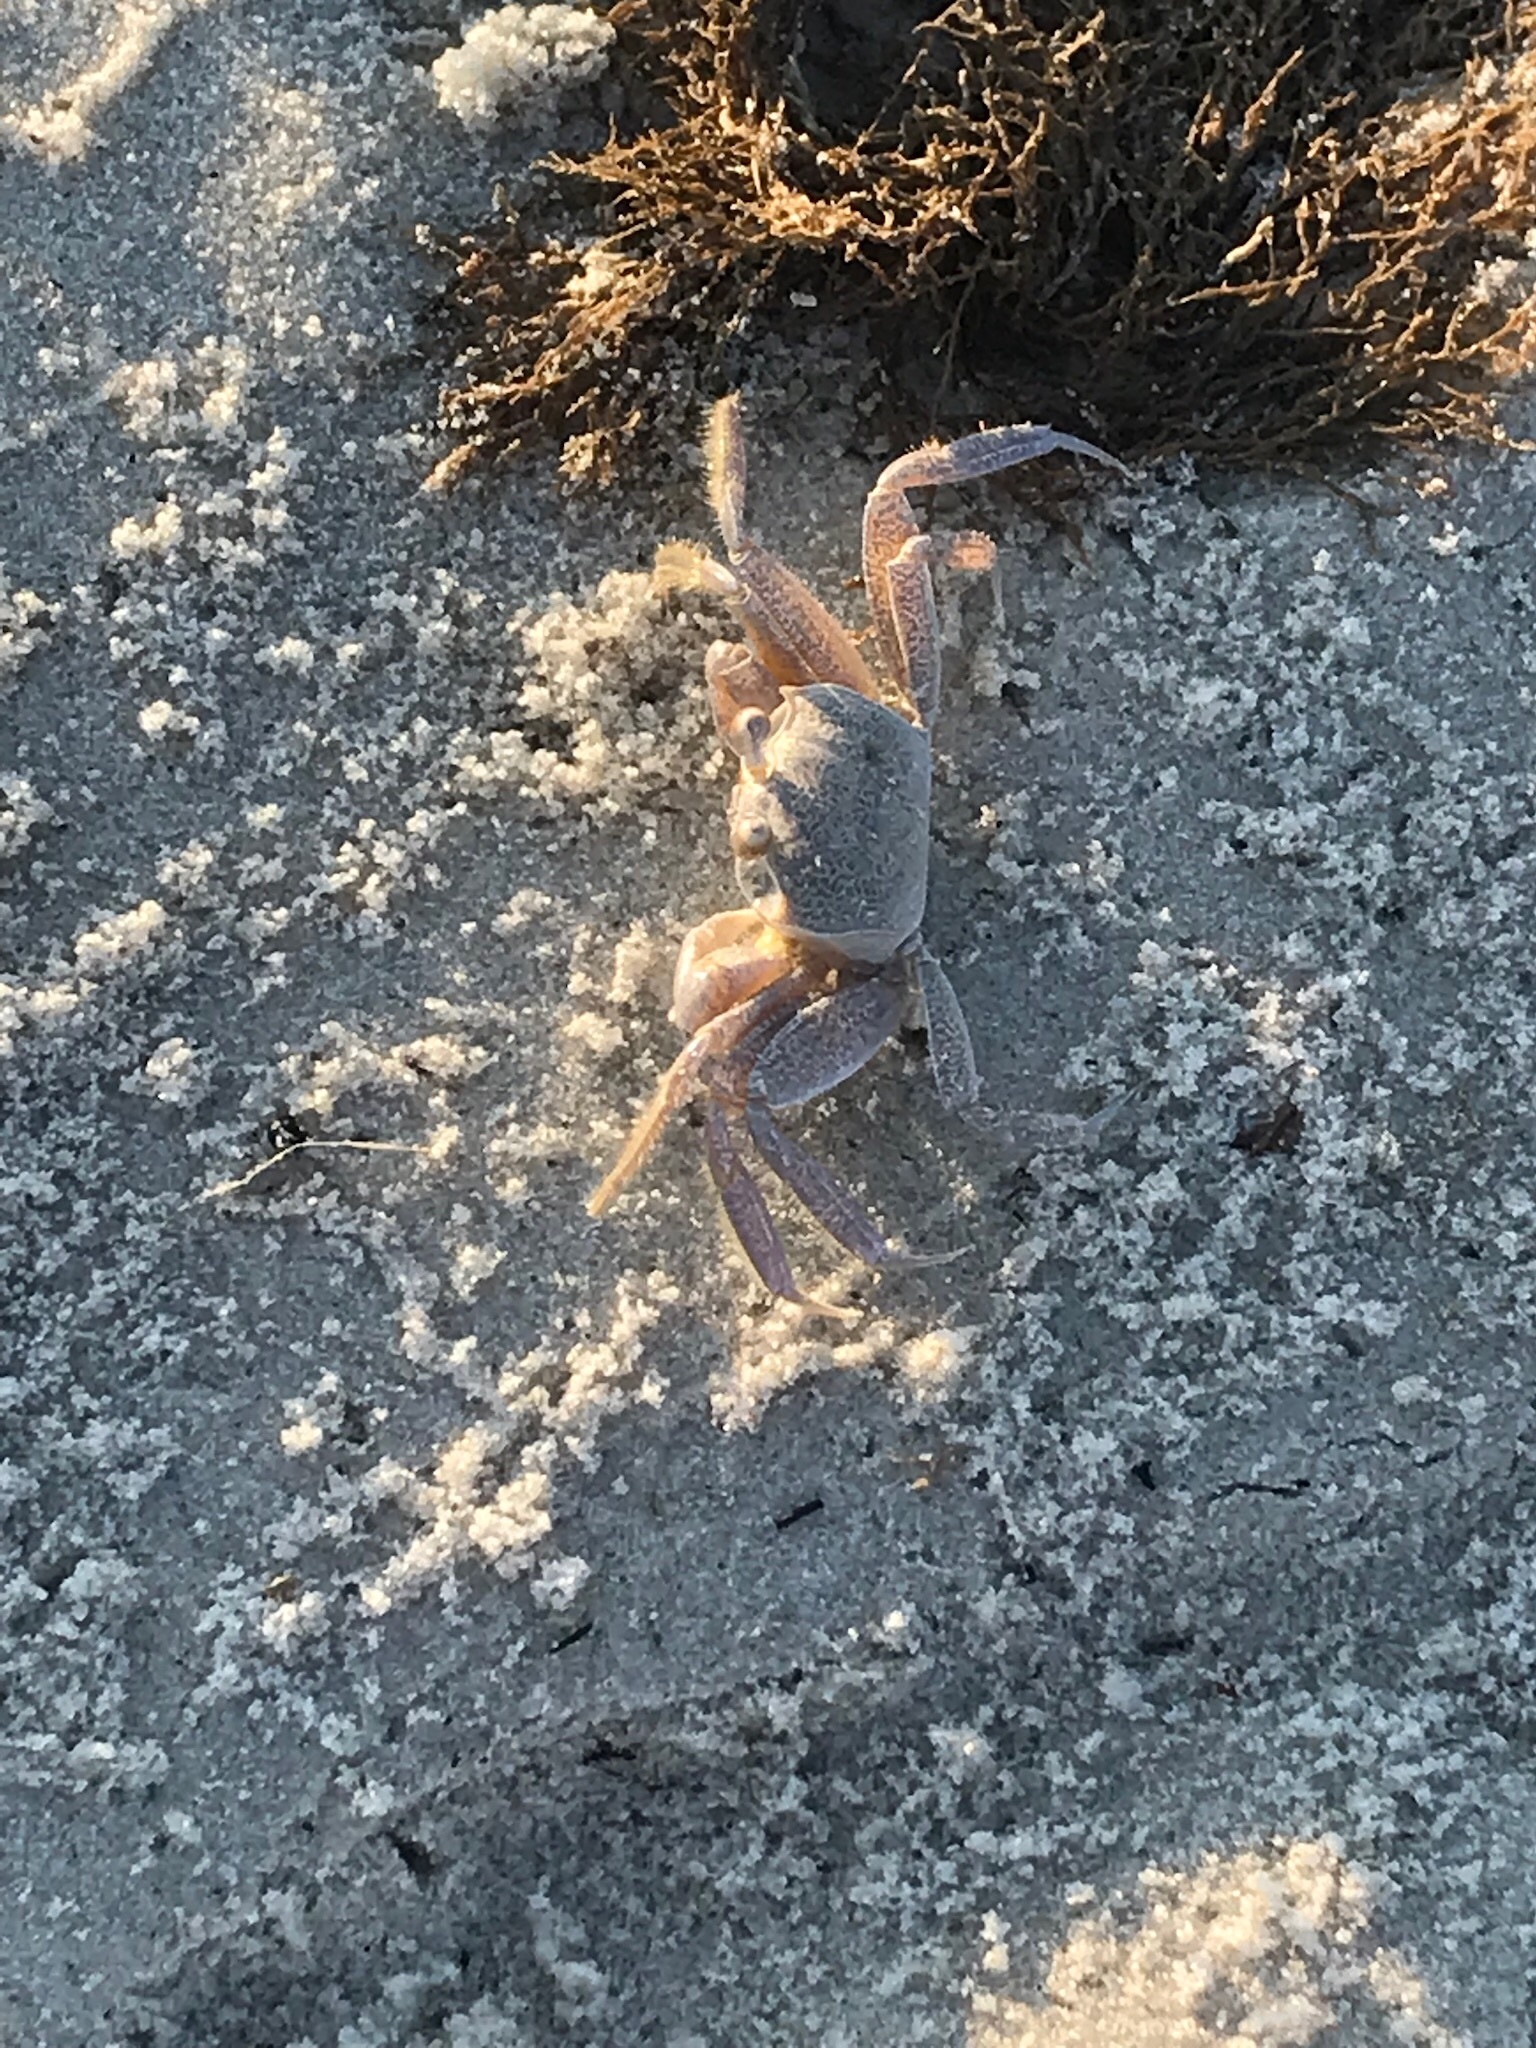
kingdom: Animalia
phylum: Arthropoda
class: Malacostraca
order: Decapoda
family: Ocypodidae
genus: Ocypode
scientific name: Ocypode quadrata
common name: Ghost crab
